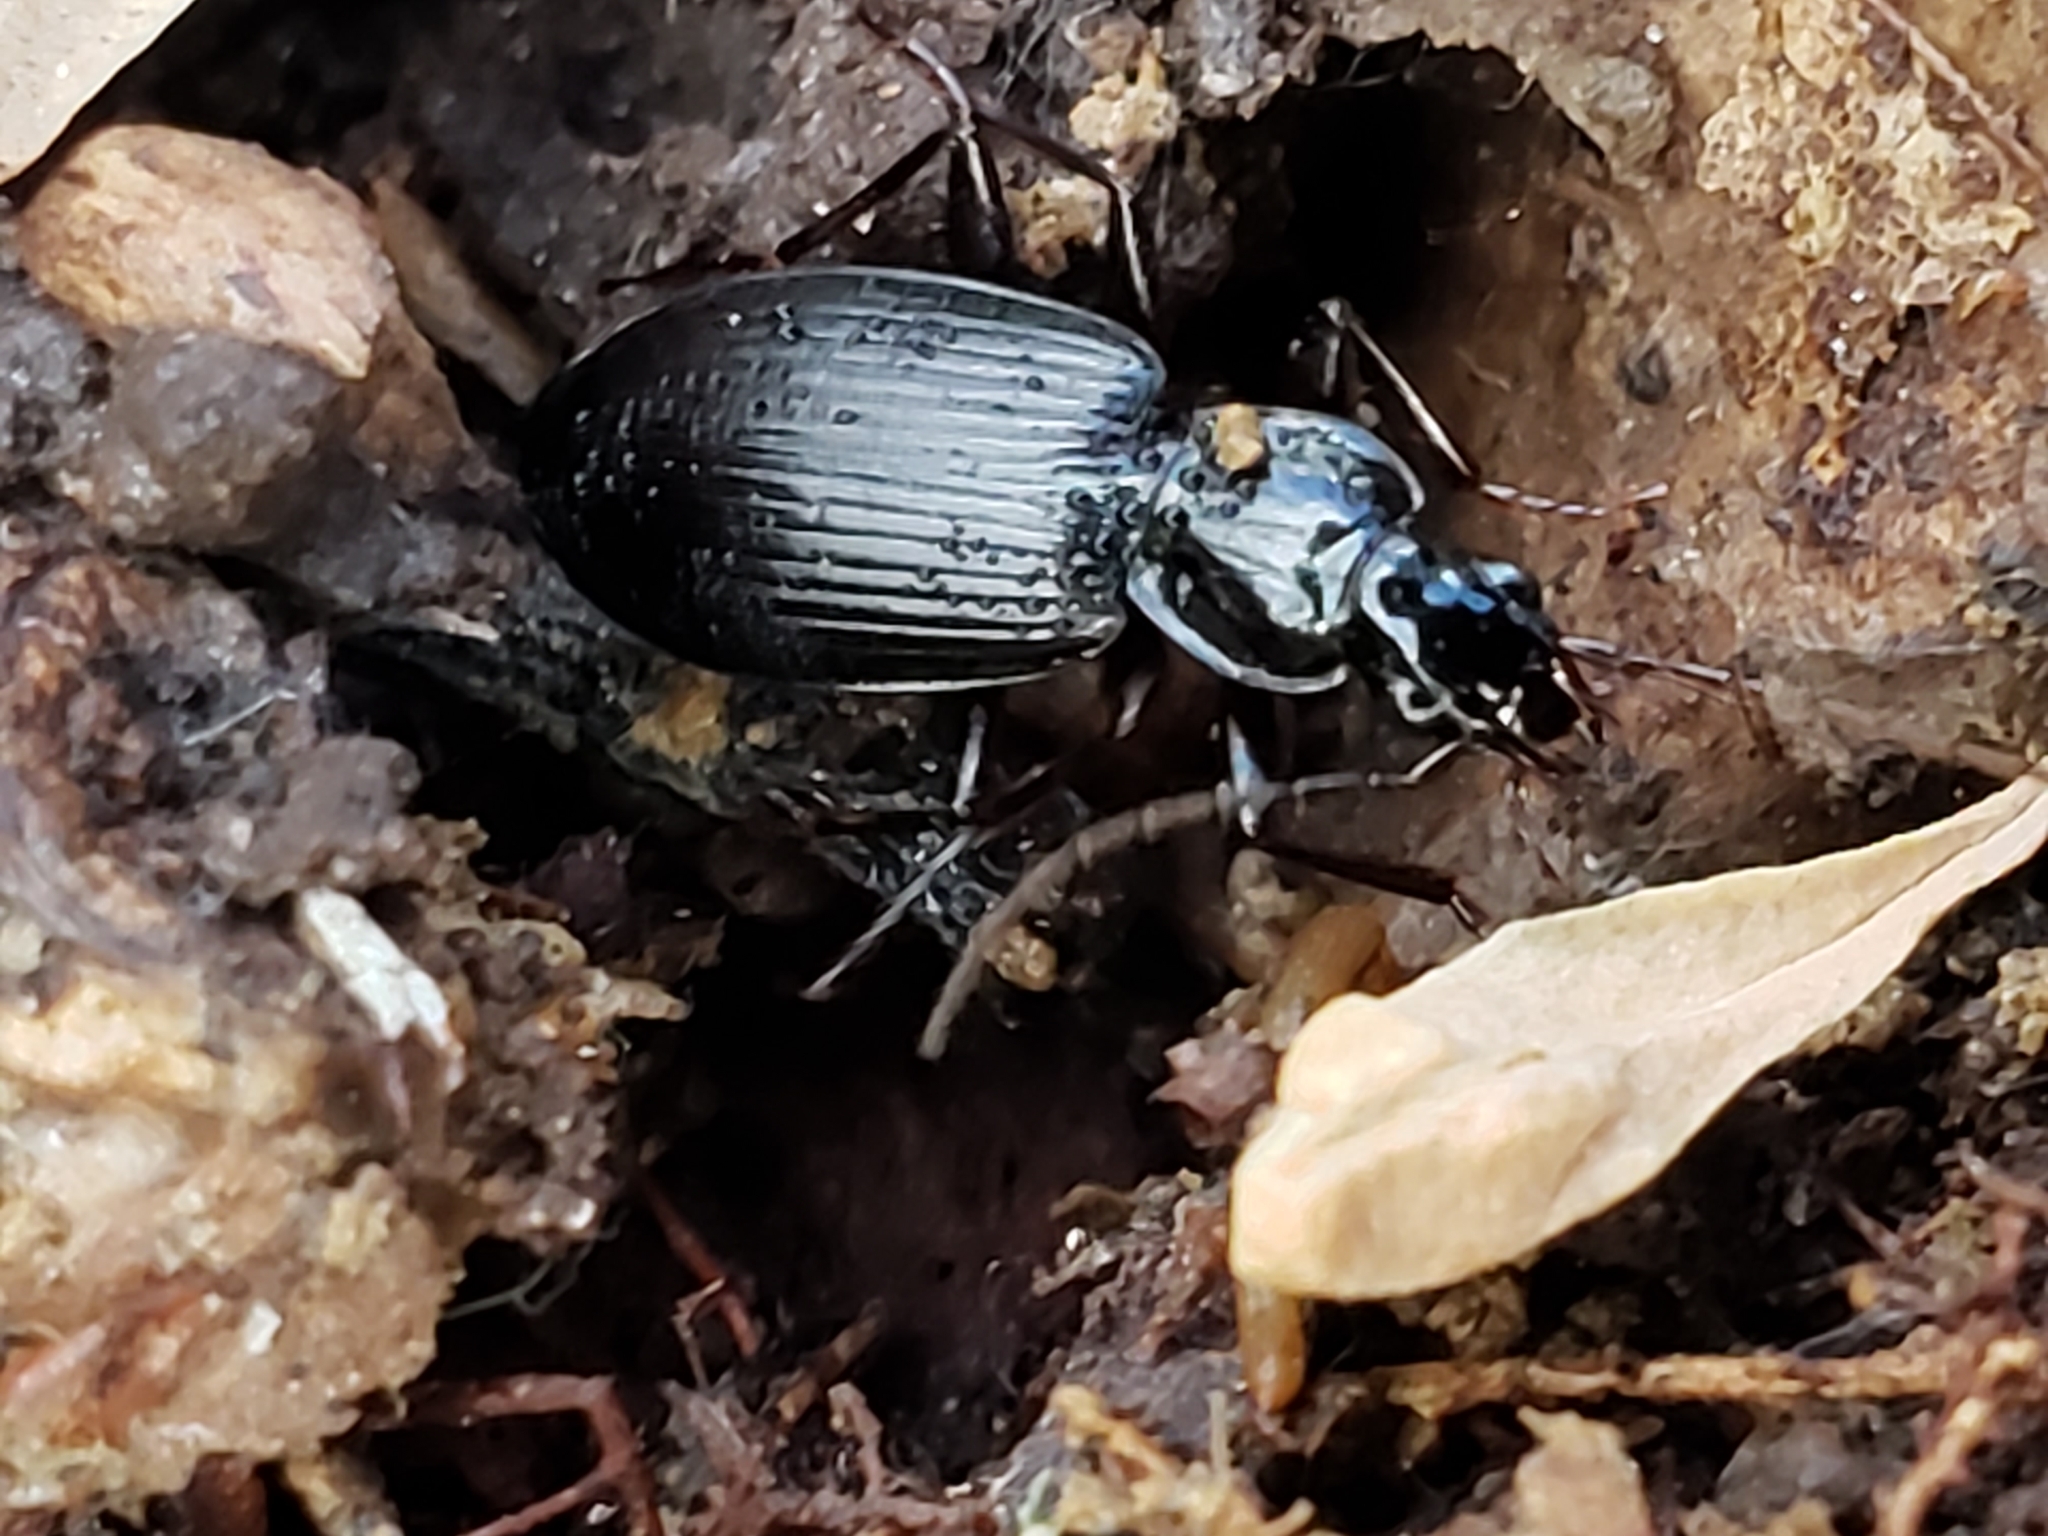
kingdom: Animalia
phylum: Arthropoda
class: Insecta
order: Coleoptera
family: Carabidae
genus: Platynus
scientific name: Platynus decentis
